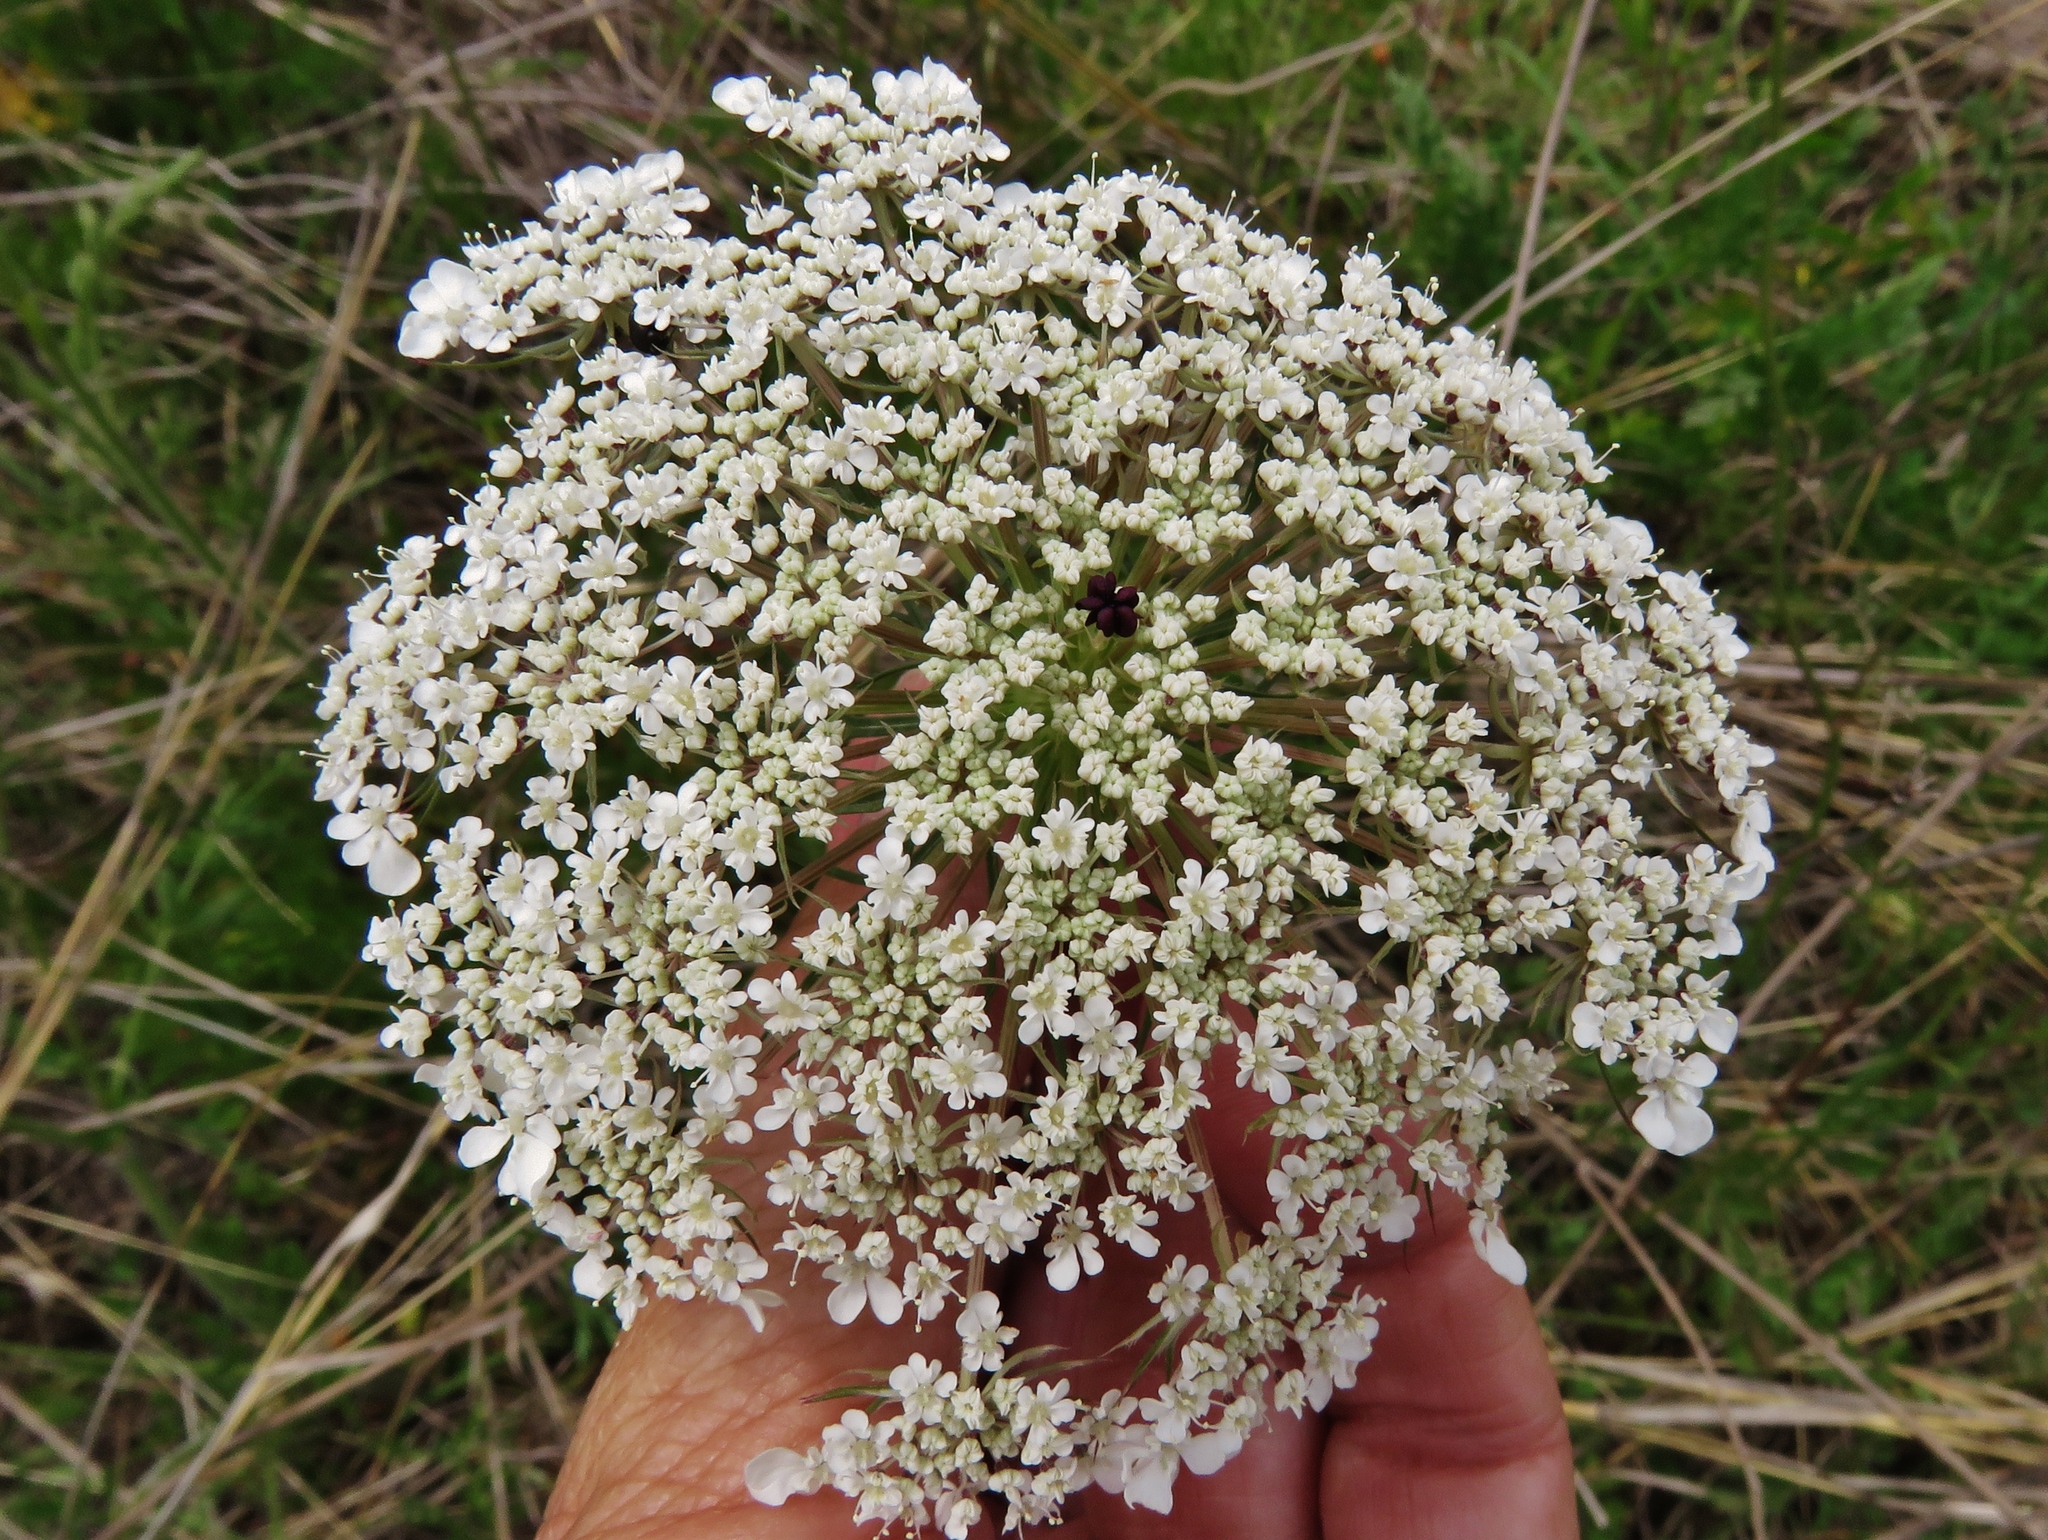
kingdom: Plantae
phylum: Tracheophyta
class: Magnoliopsida
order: Apiales
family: Apiaceae
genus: Daucus
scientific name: Daucus carota
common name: Wild carrot
